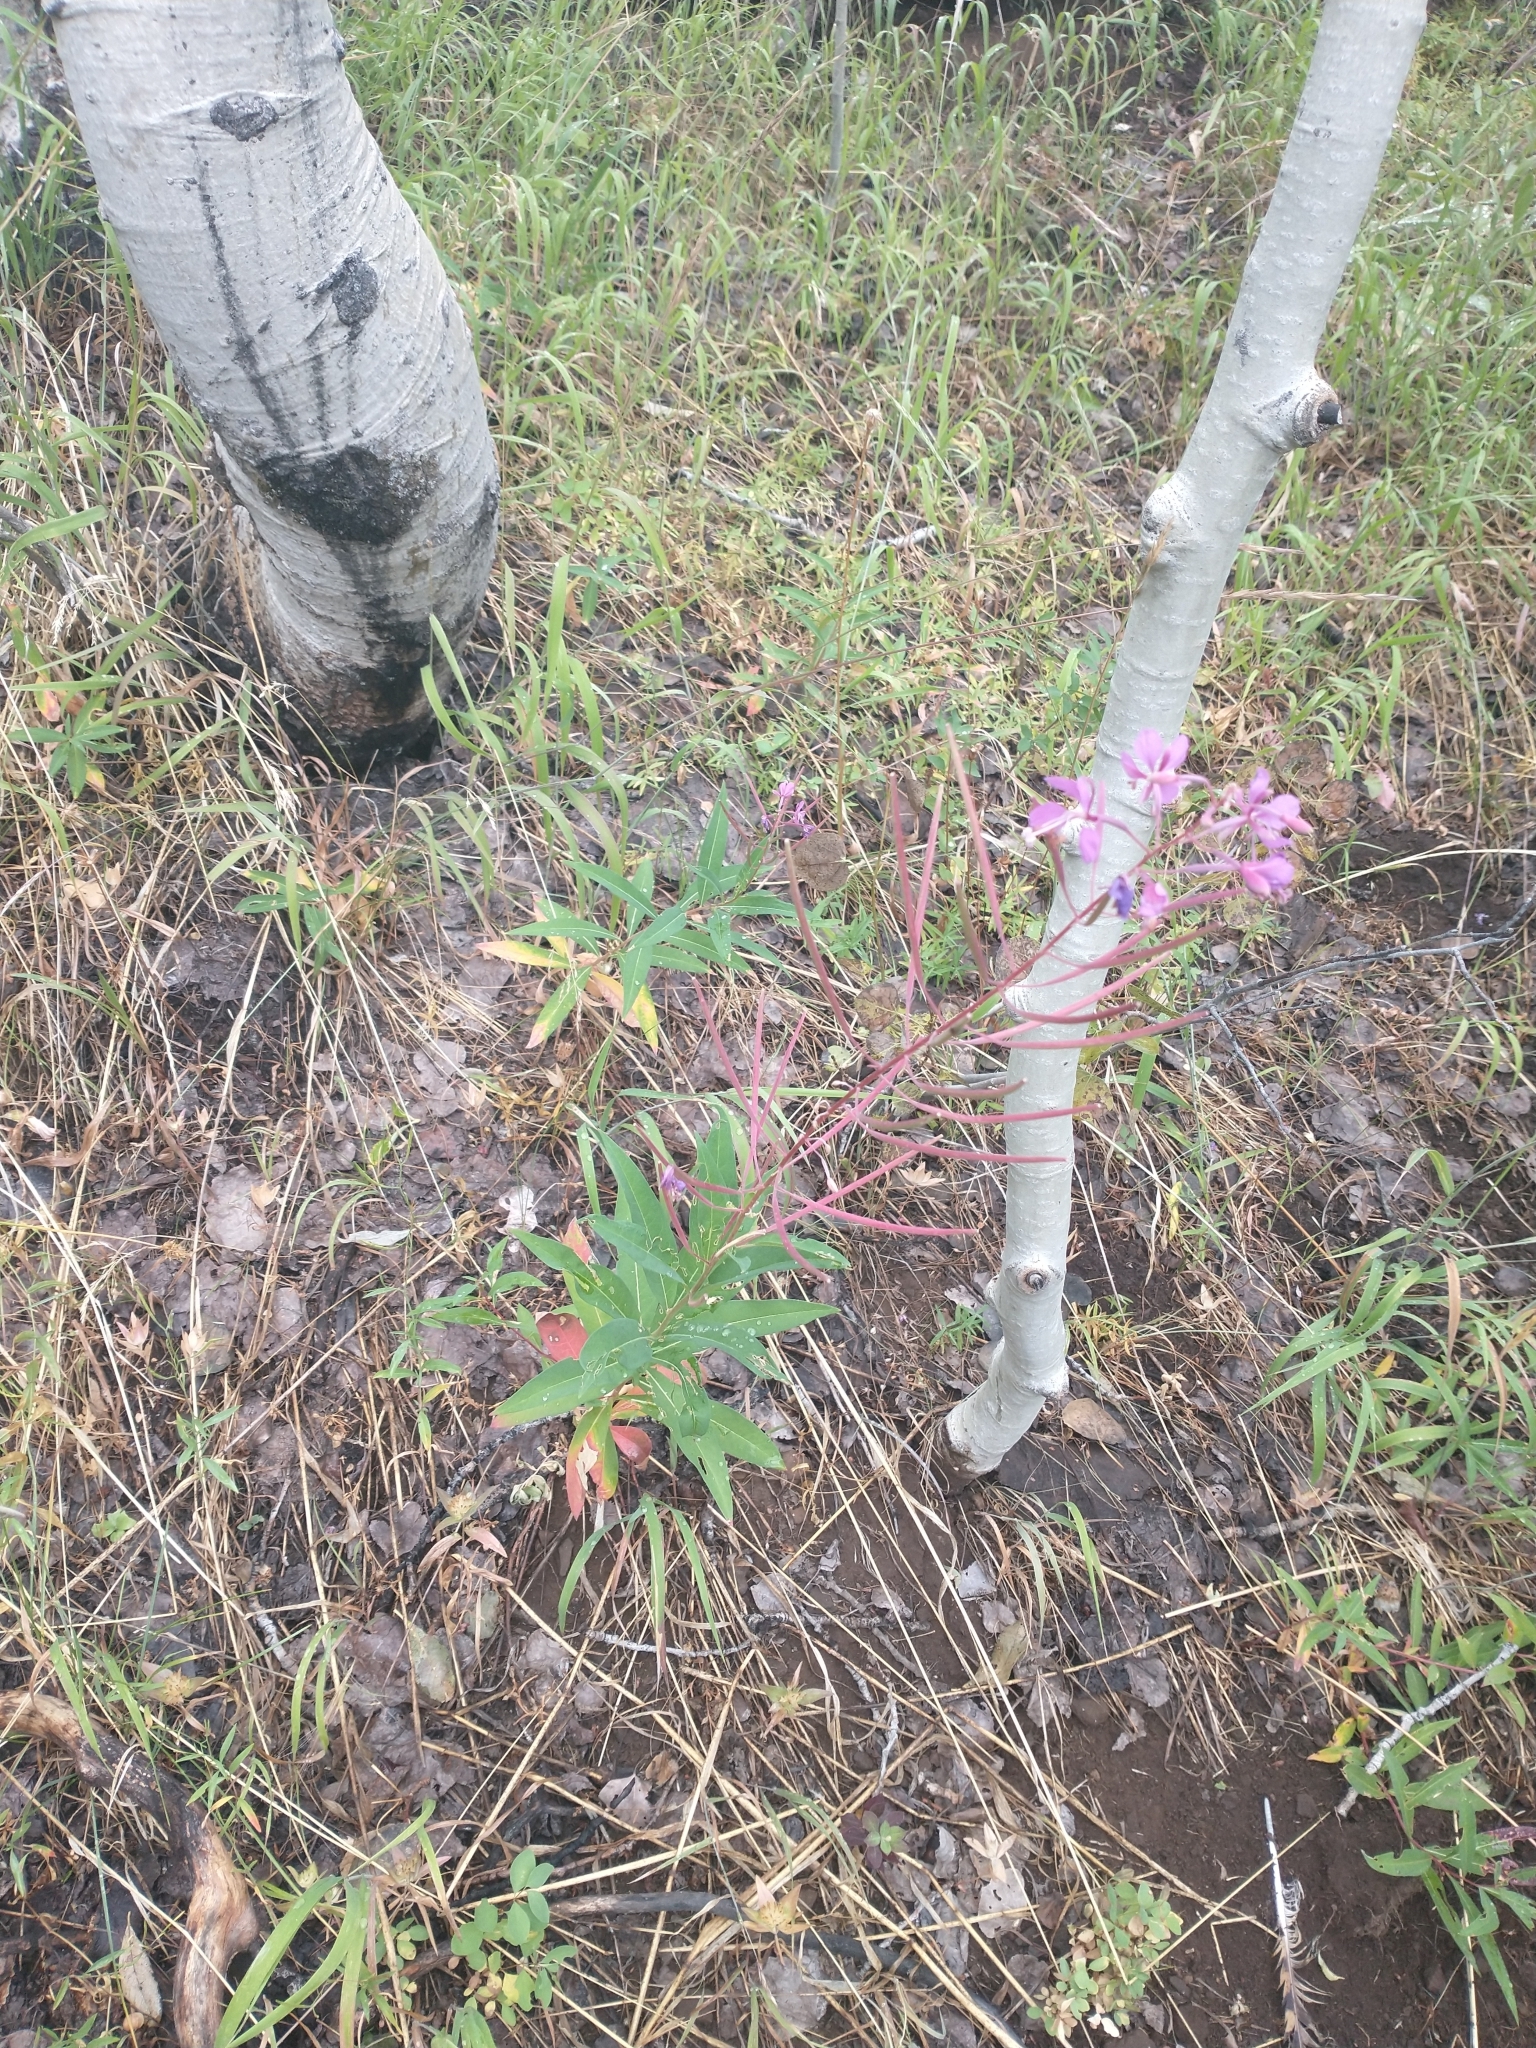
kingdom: Plantae
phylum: Tracheophyta
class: Magnoliopsida
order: Malpighiales
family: Salicaceae
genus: Populus
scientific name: Populus tremuloides
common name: Quaking aspen
